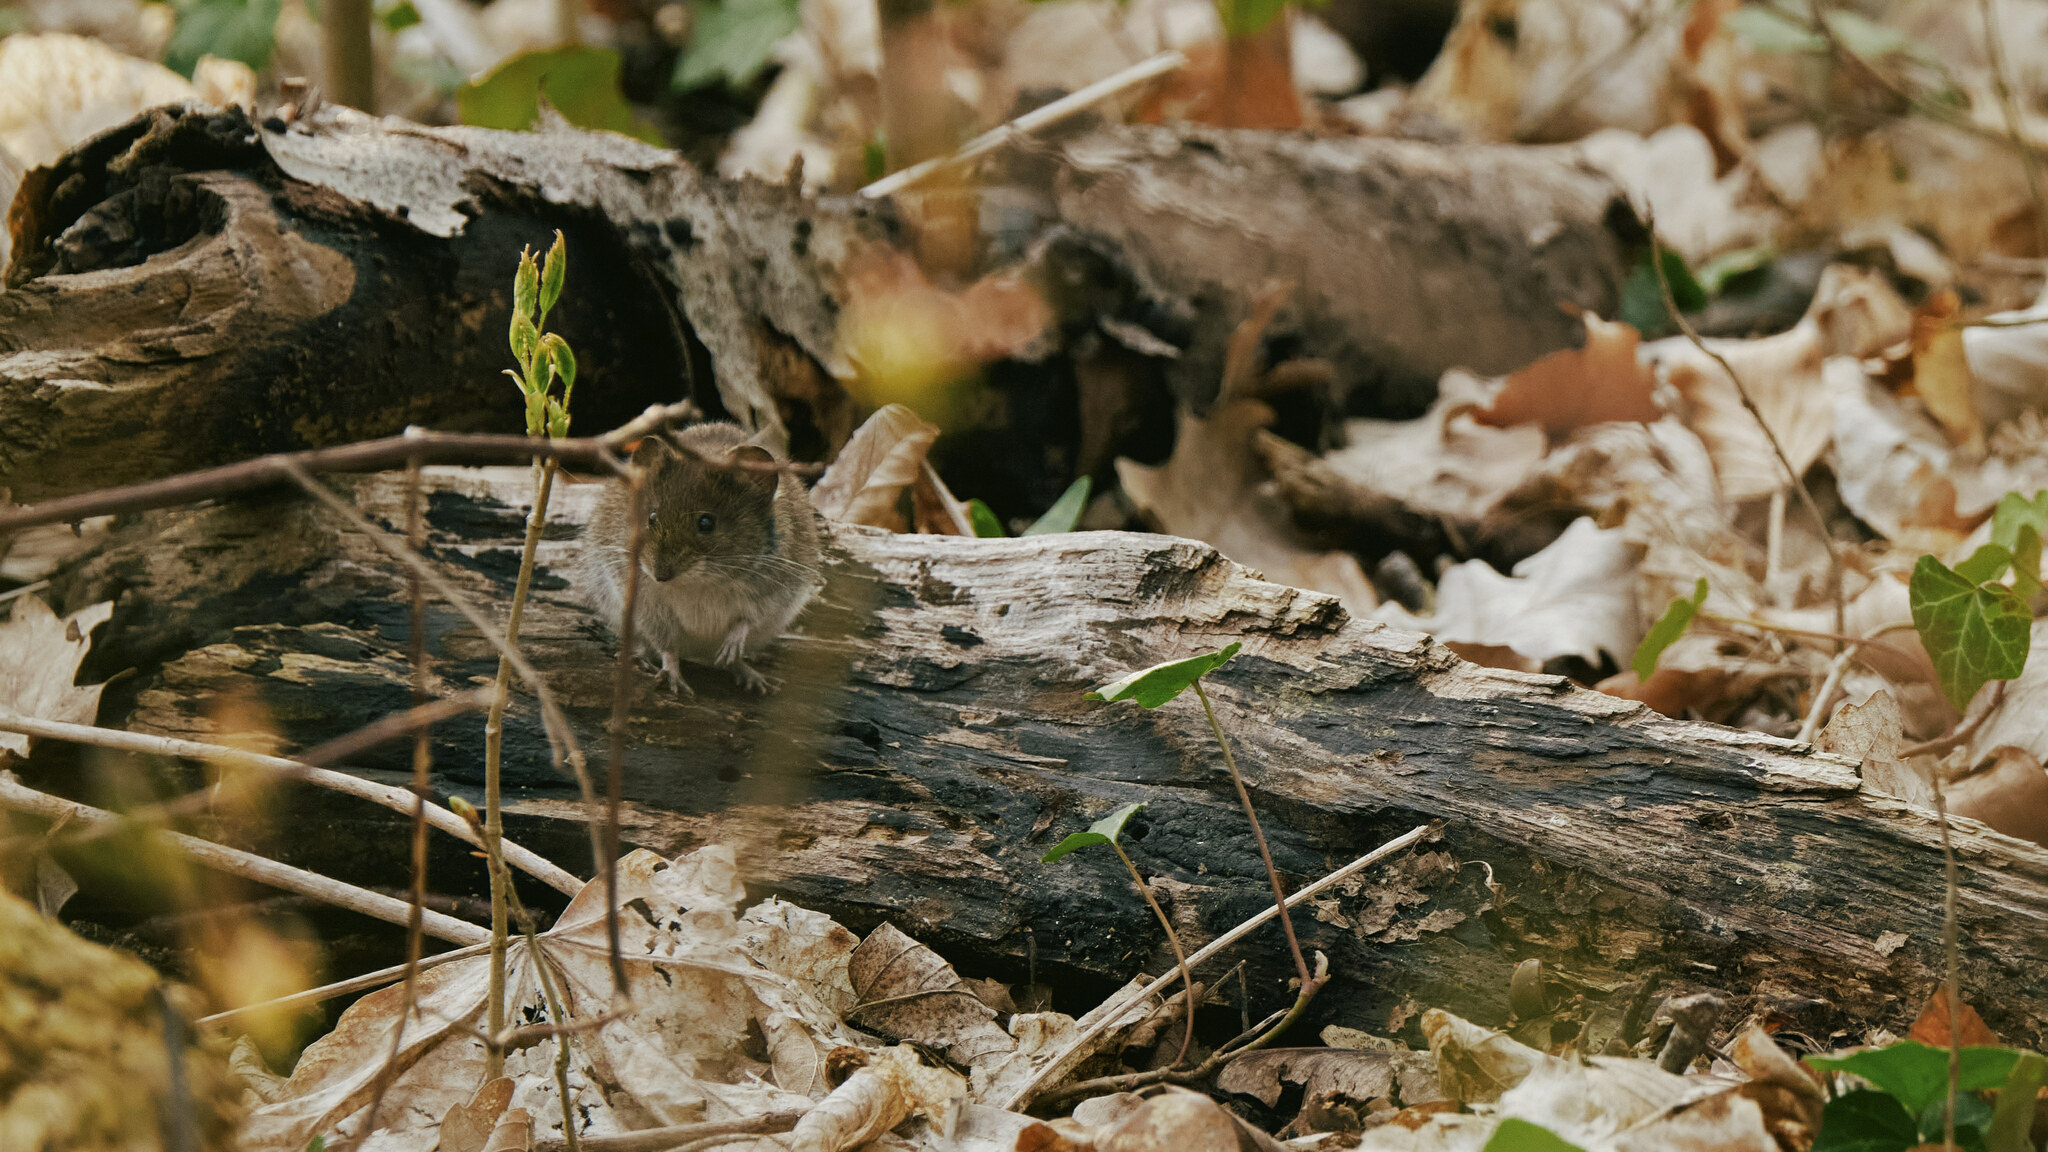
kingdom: Animalia
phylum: Chordata
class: Mammalia
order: Rodentia
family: Cricetidae
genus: Myodes
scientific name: Myodes glareolus
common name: Bank vole
